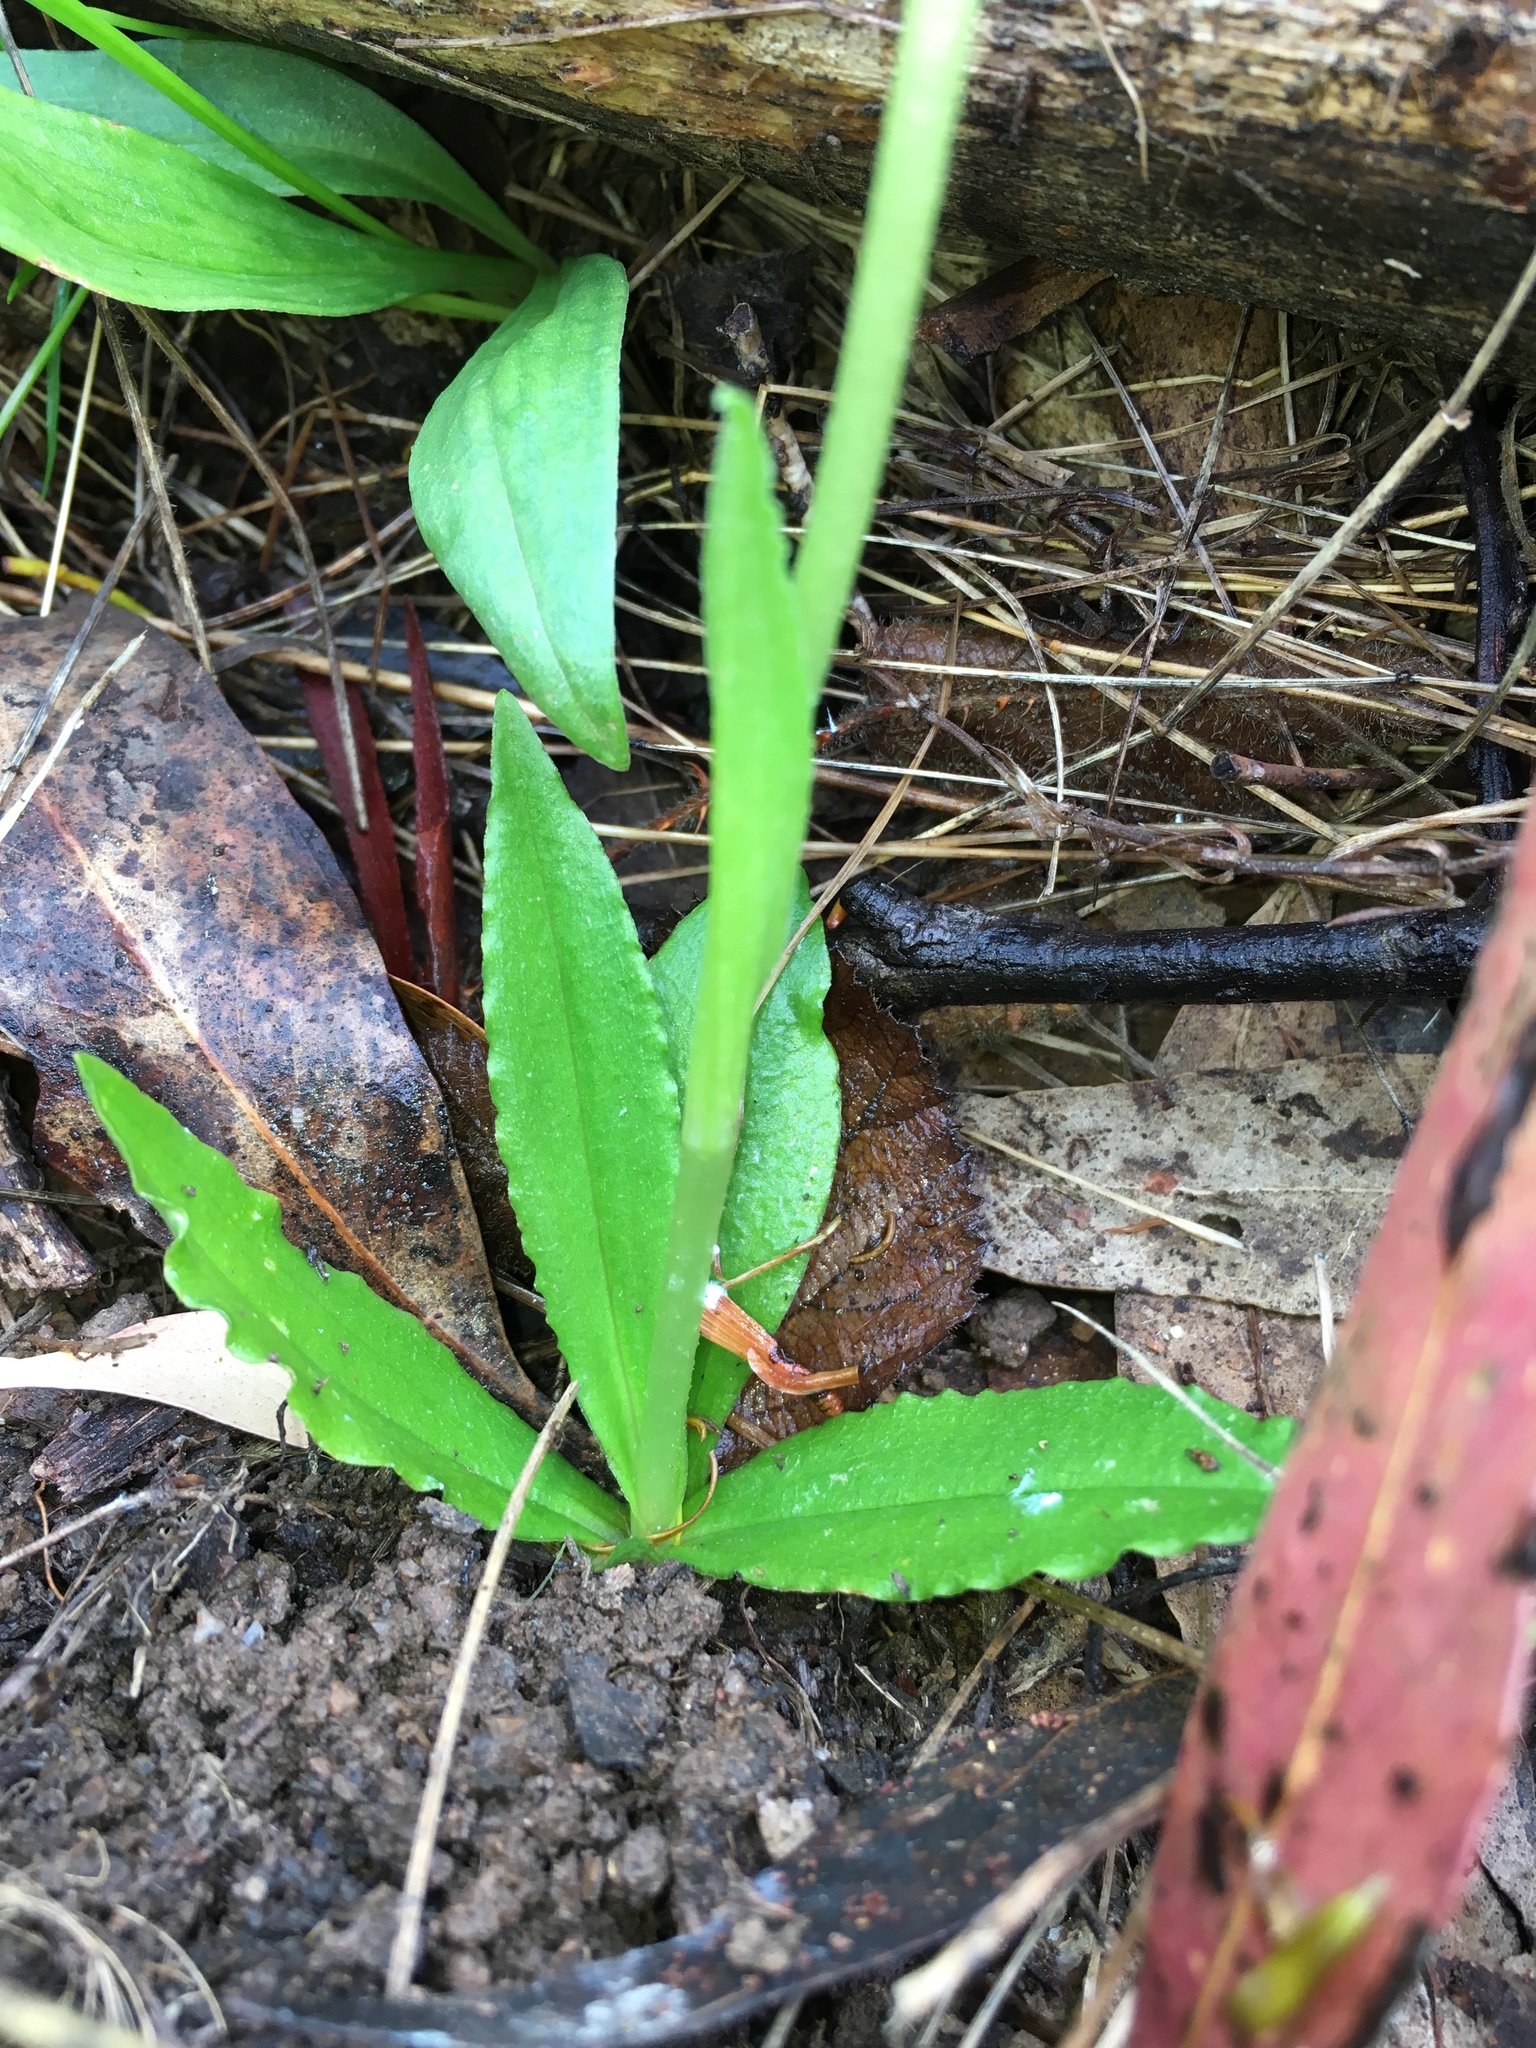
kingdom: Plantae
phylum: Tracheophyta
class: Liliopsida
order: Asparagales
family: Orchidaceae
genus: Pterostylis
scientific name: Pterostylis monticola
